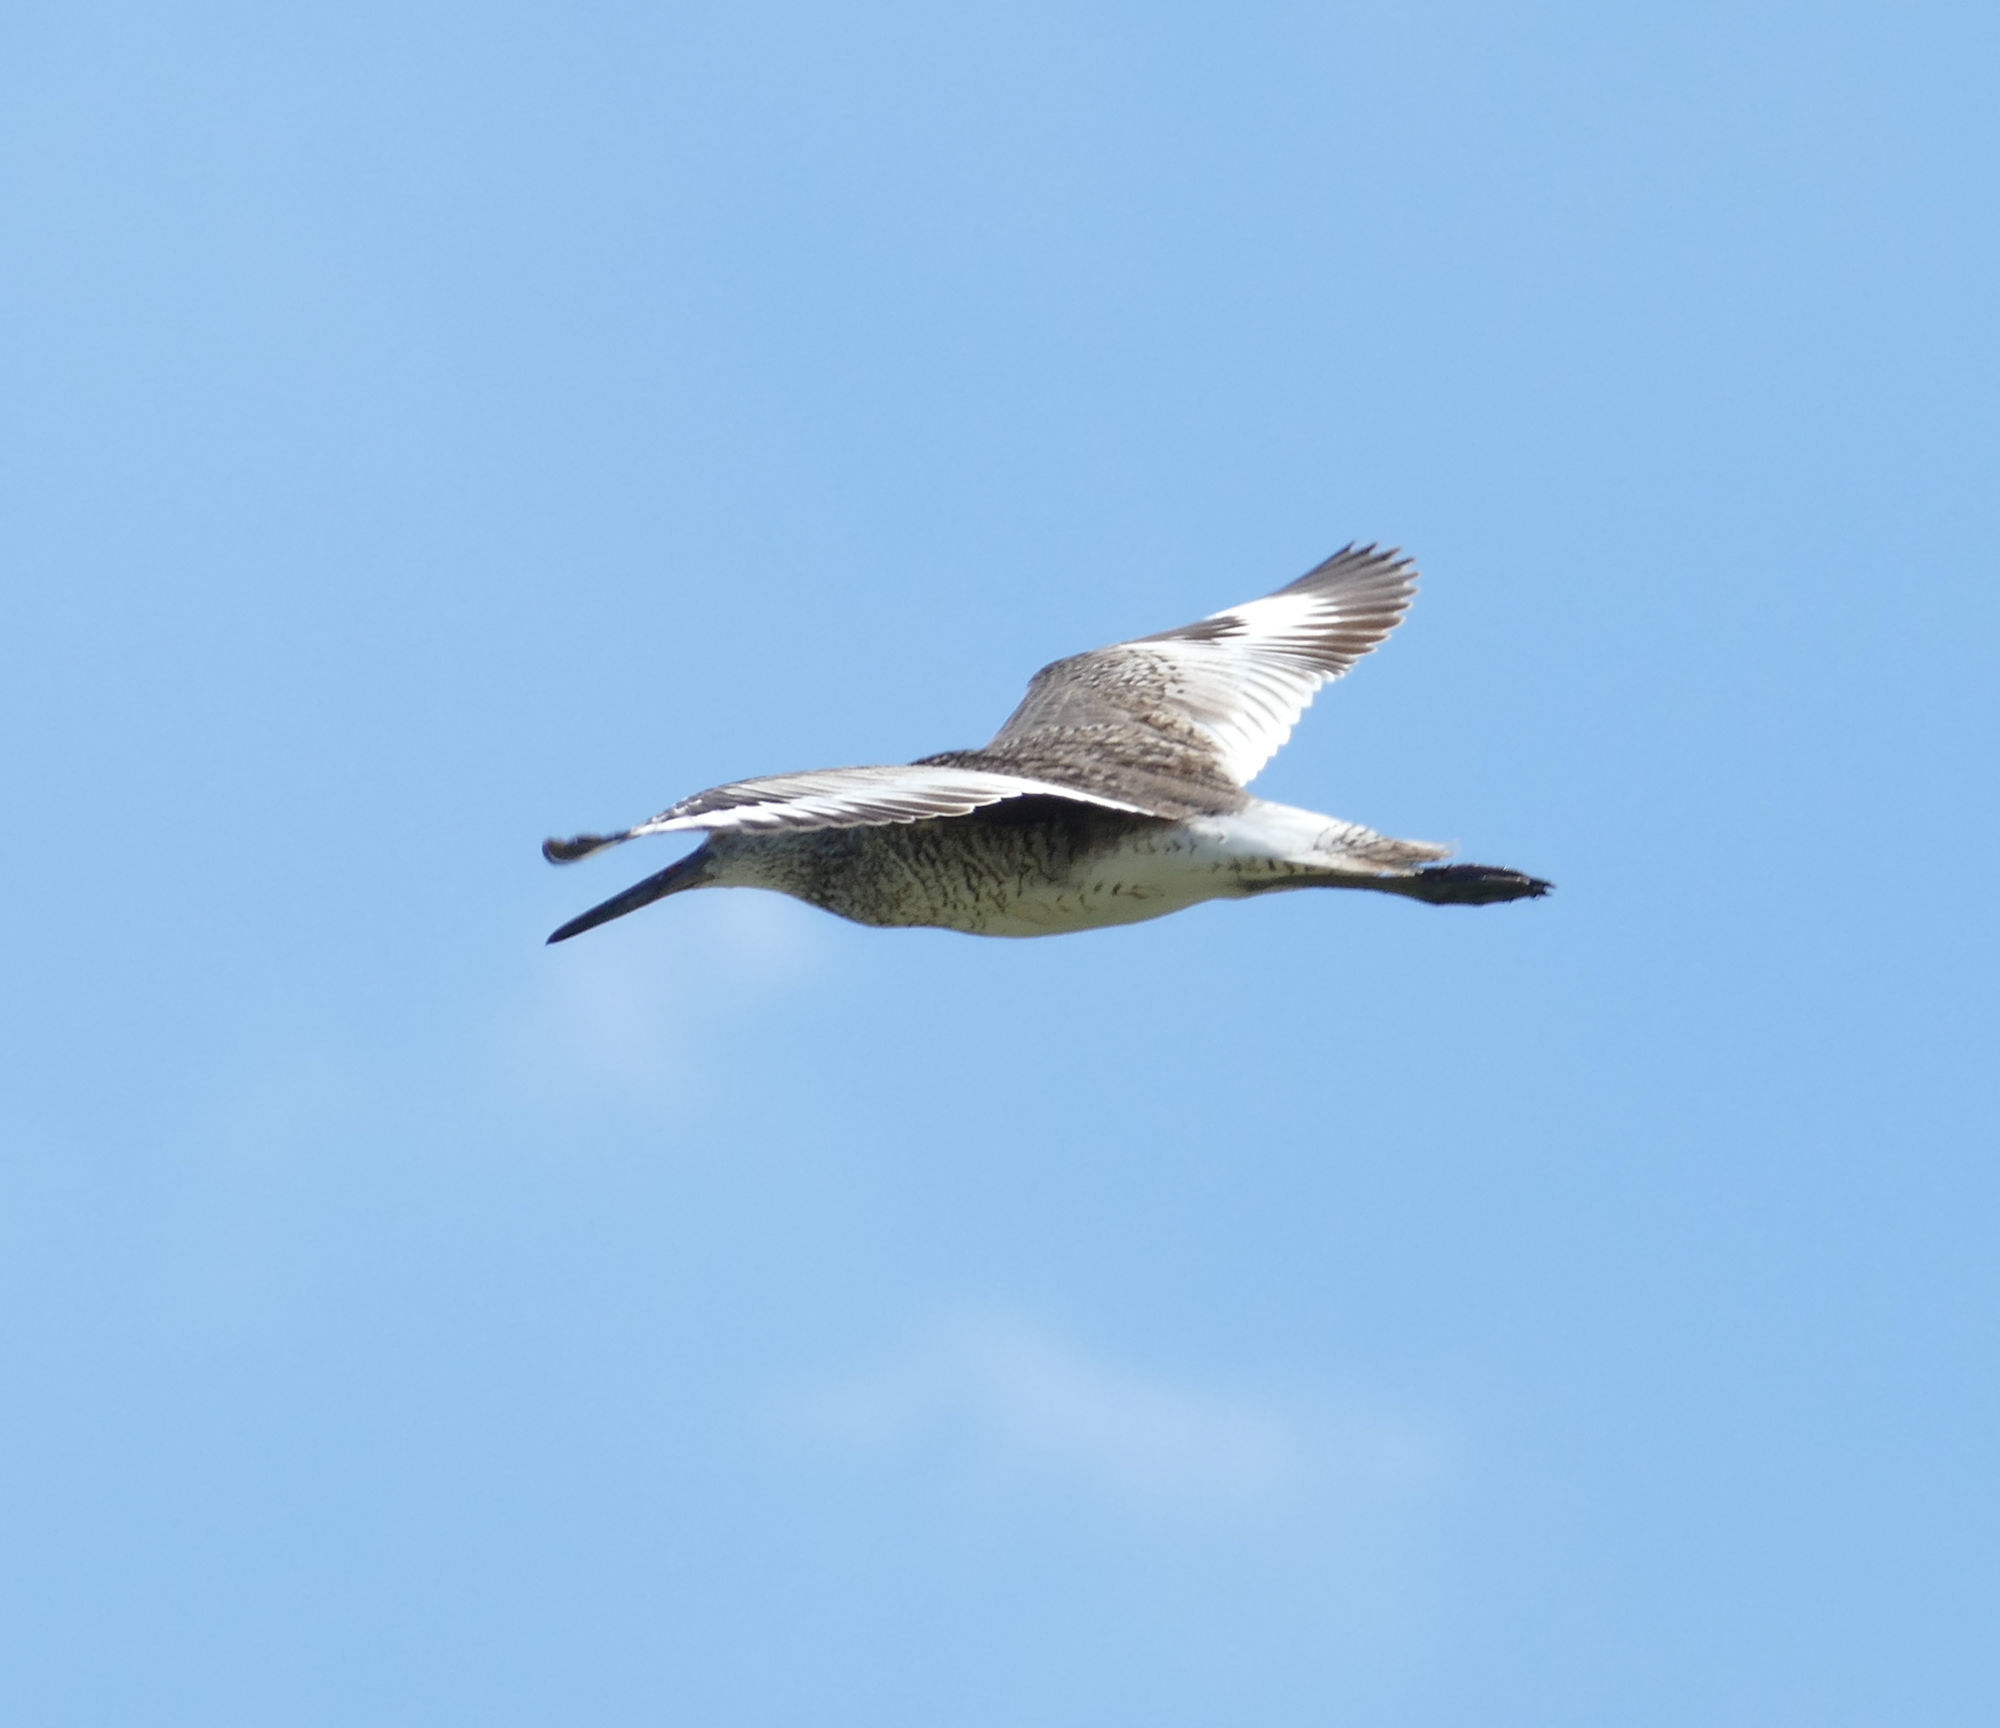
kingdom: Animalia
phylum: Chordata
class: Aves
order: Charadriiformes
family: Scolopacidae
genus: Tringa
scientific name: Tringa semipalmata
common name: Willet
